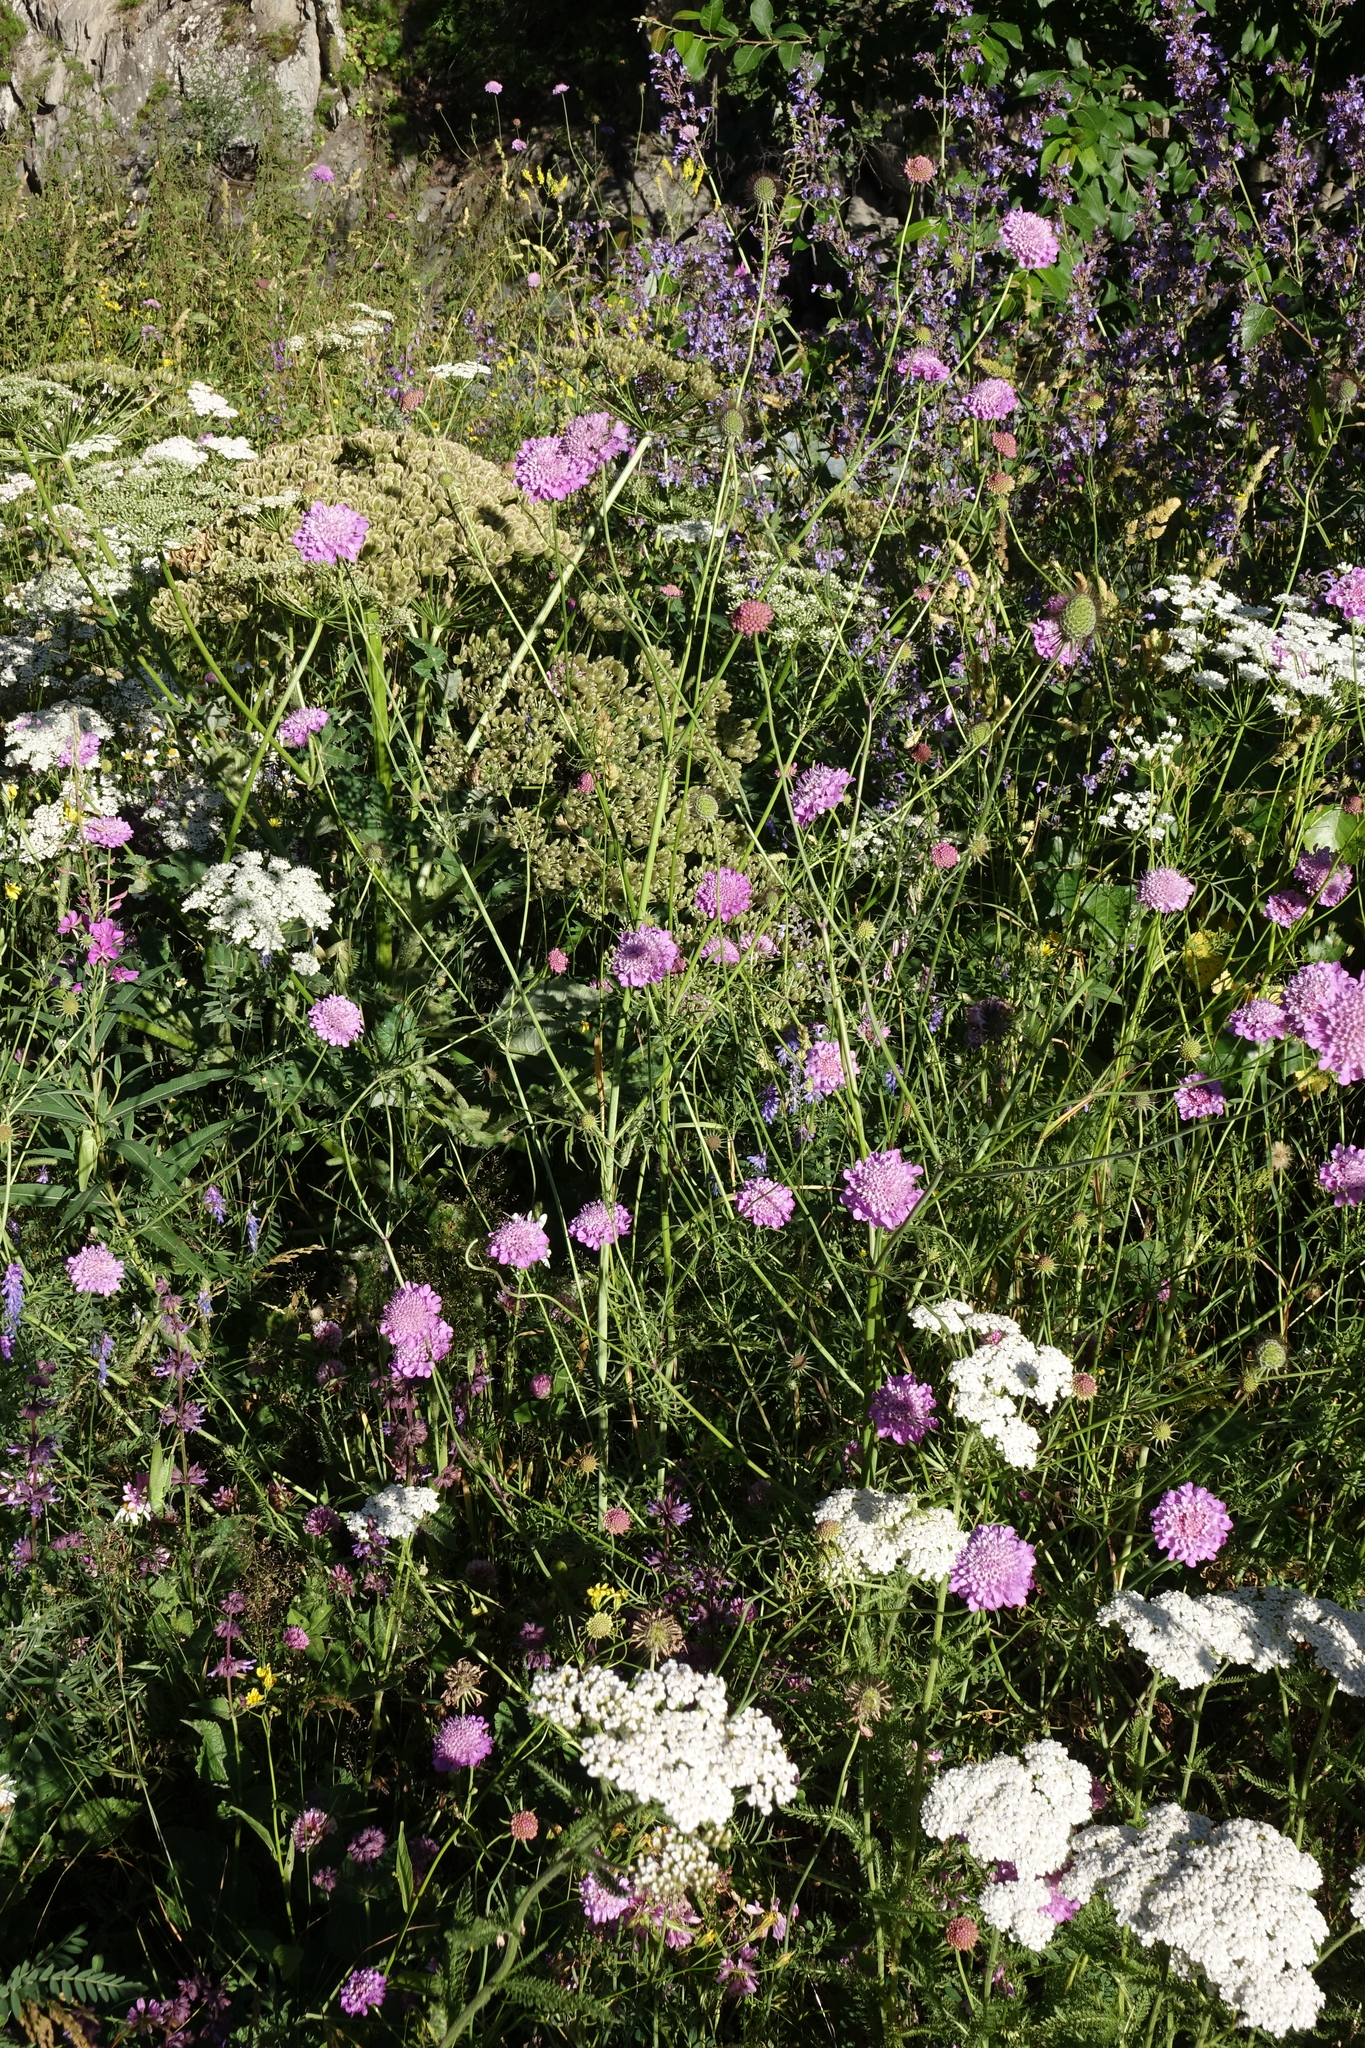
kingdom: Plantae
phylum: Tracheophyta
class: Magnoliopsida
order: Asterales
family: Asteraceae
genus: Achillea
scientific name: Achillea millefolium
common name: Yarrow
